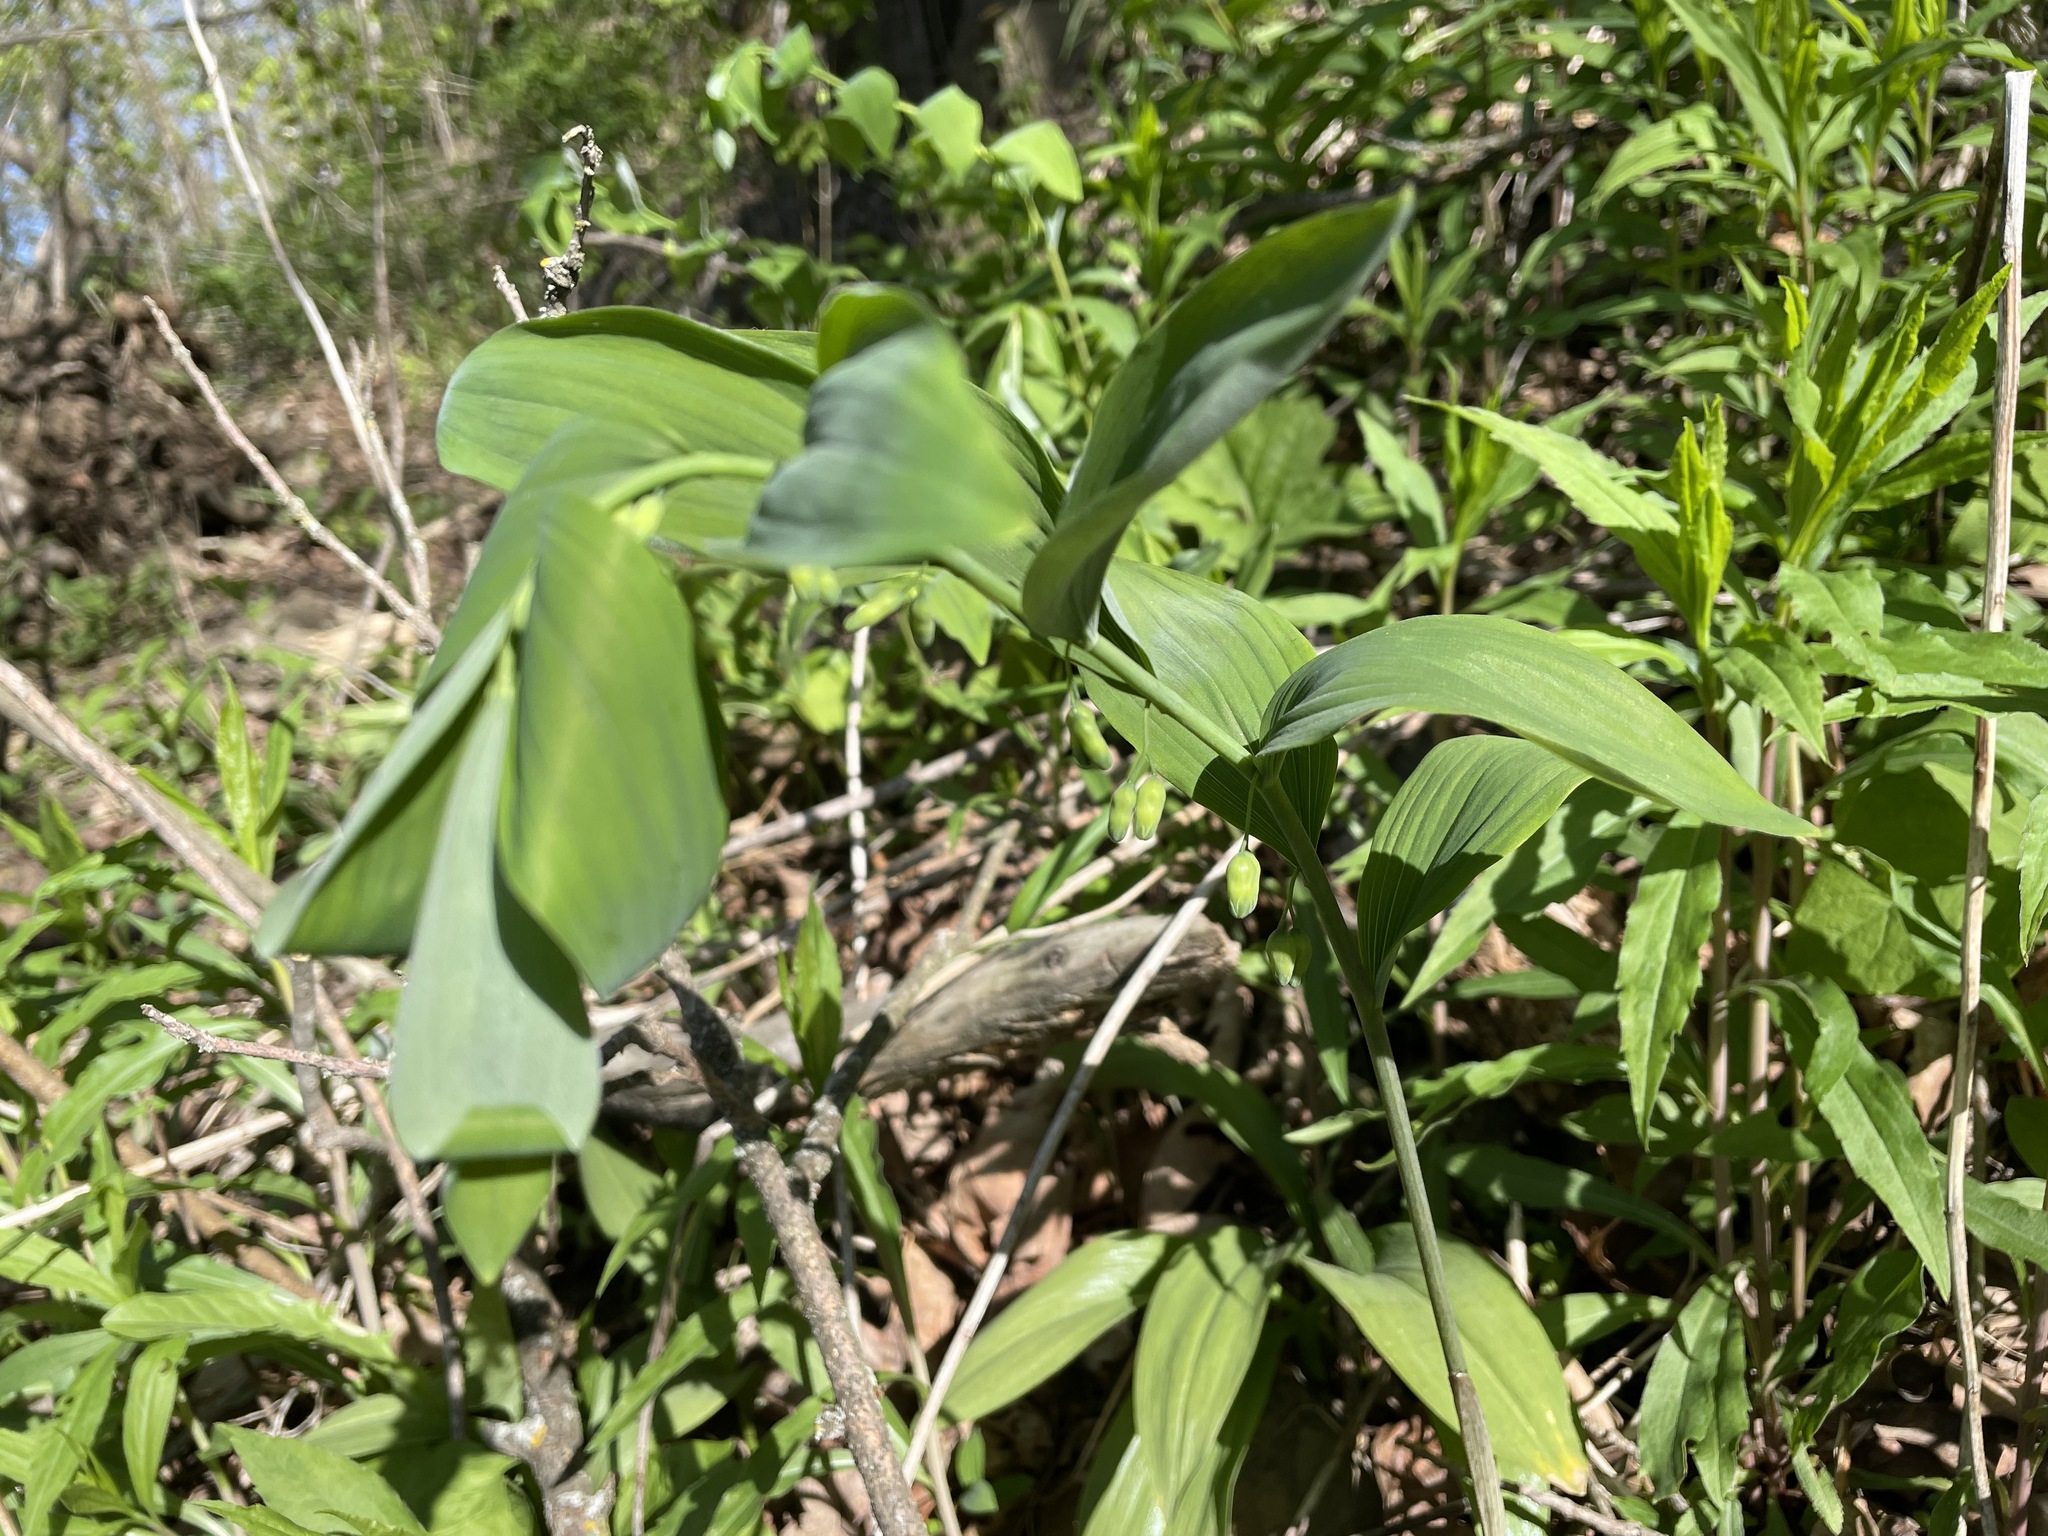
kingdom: Plantae
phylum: Tracheophyta
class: Liliopsida
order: Asparagales
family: Asparagaceae
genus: Polygonatum
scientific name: Polygonatum pubescens
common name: Downy solomon's seal
